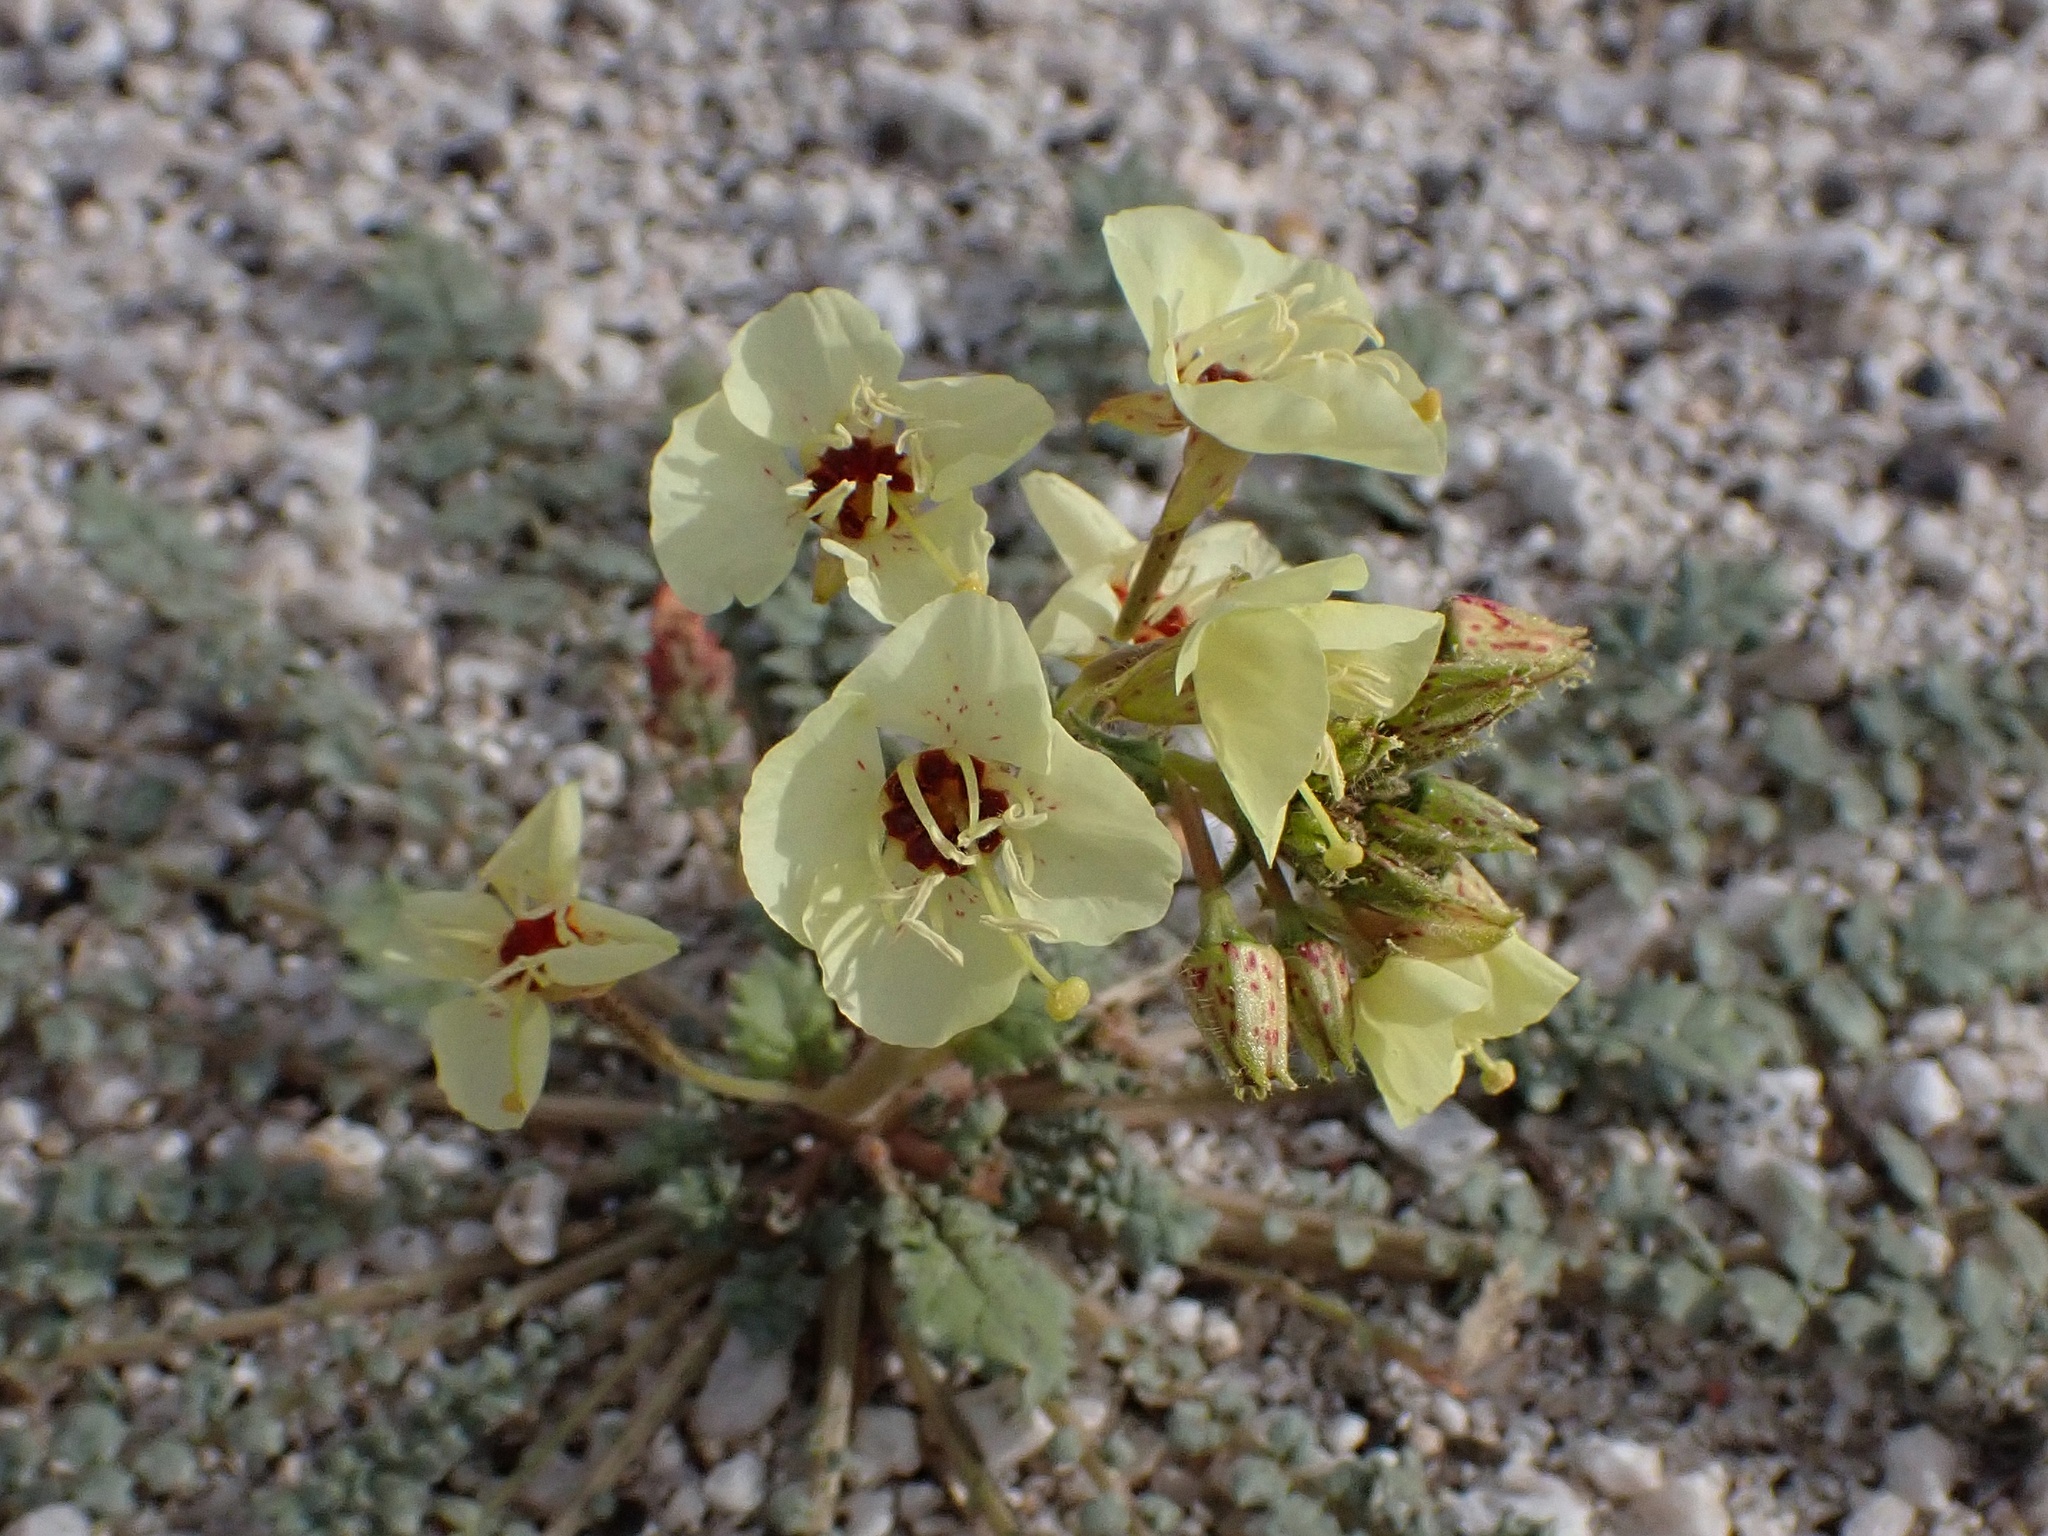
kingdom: Plantae
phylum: Tracheophyta
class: Magnoliopsida
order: Myrtales
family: Onagraceae
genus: Chylismia
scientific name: Chylismia claviformis
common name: Browneyes
